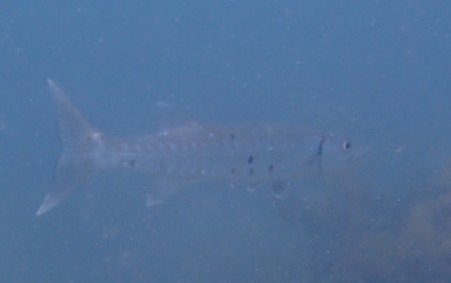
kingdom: Animalia
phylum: Chordata
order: Perciformes
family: Sphyraenidae
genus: Sphyraena
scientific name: Sphyraena barracuda
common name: Great barracuda
